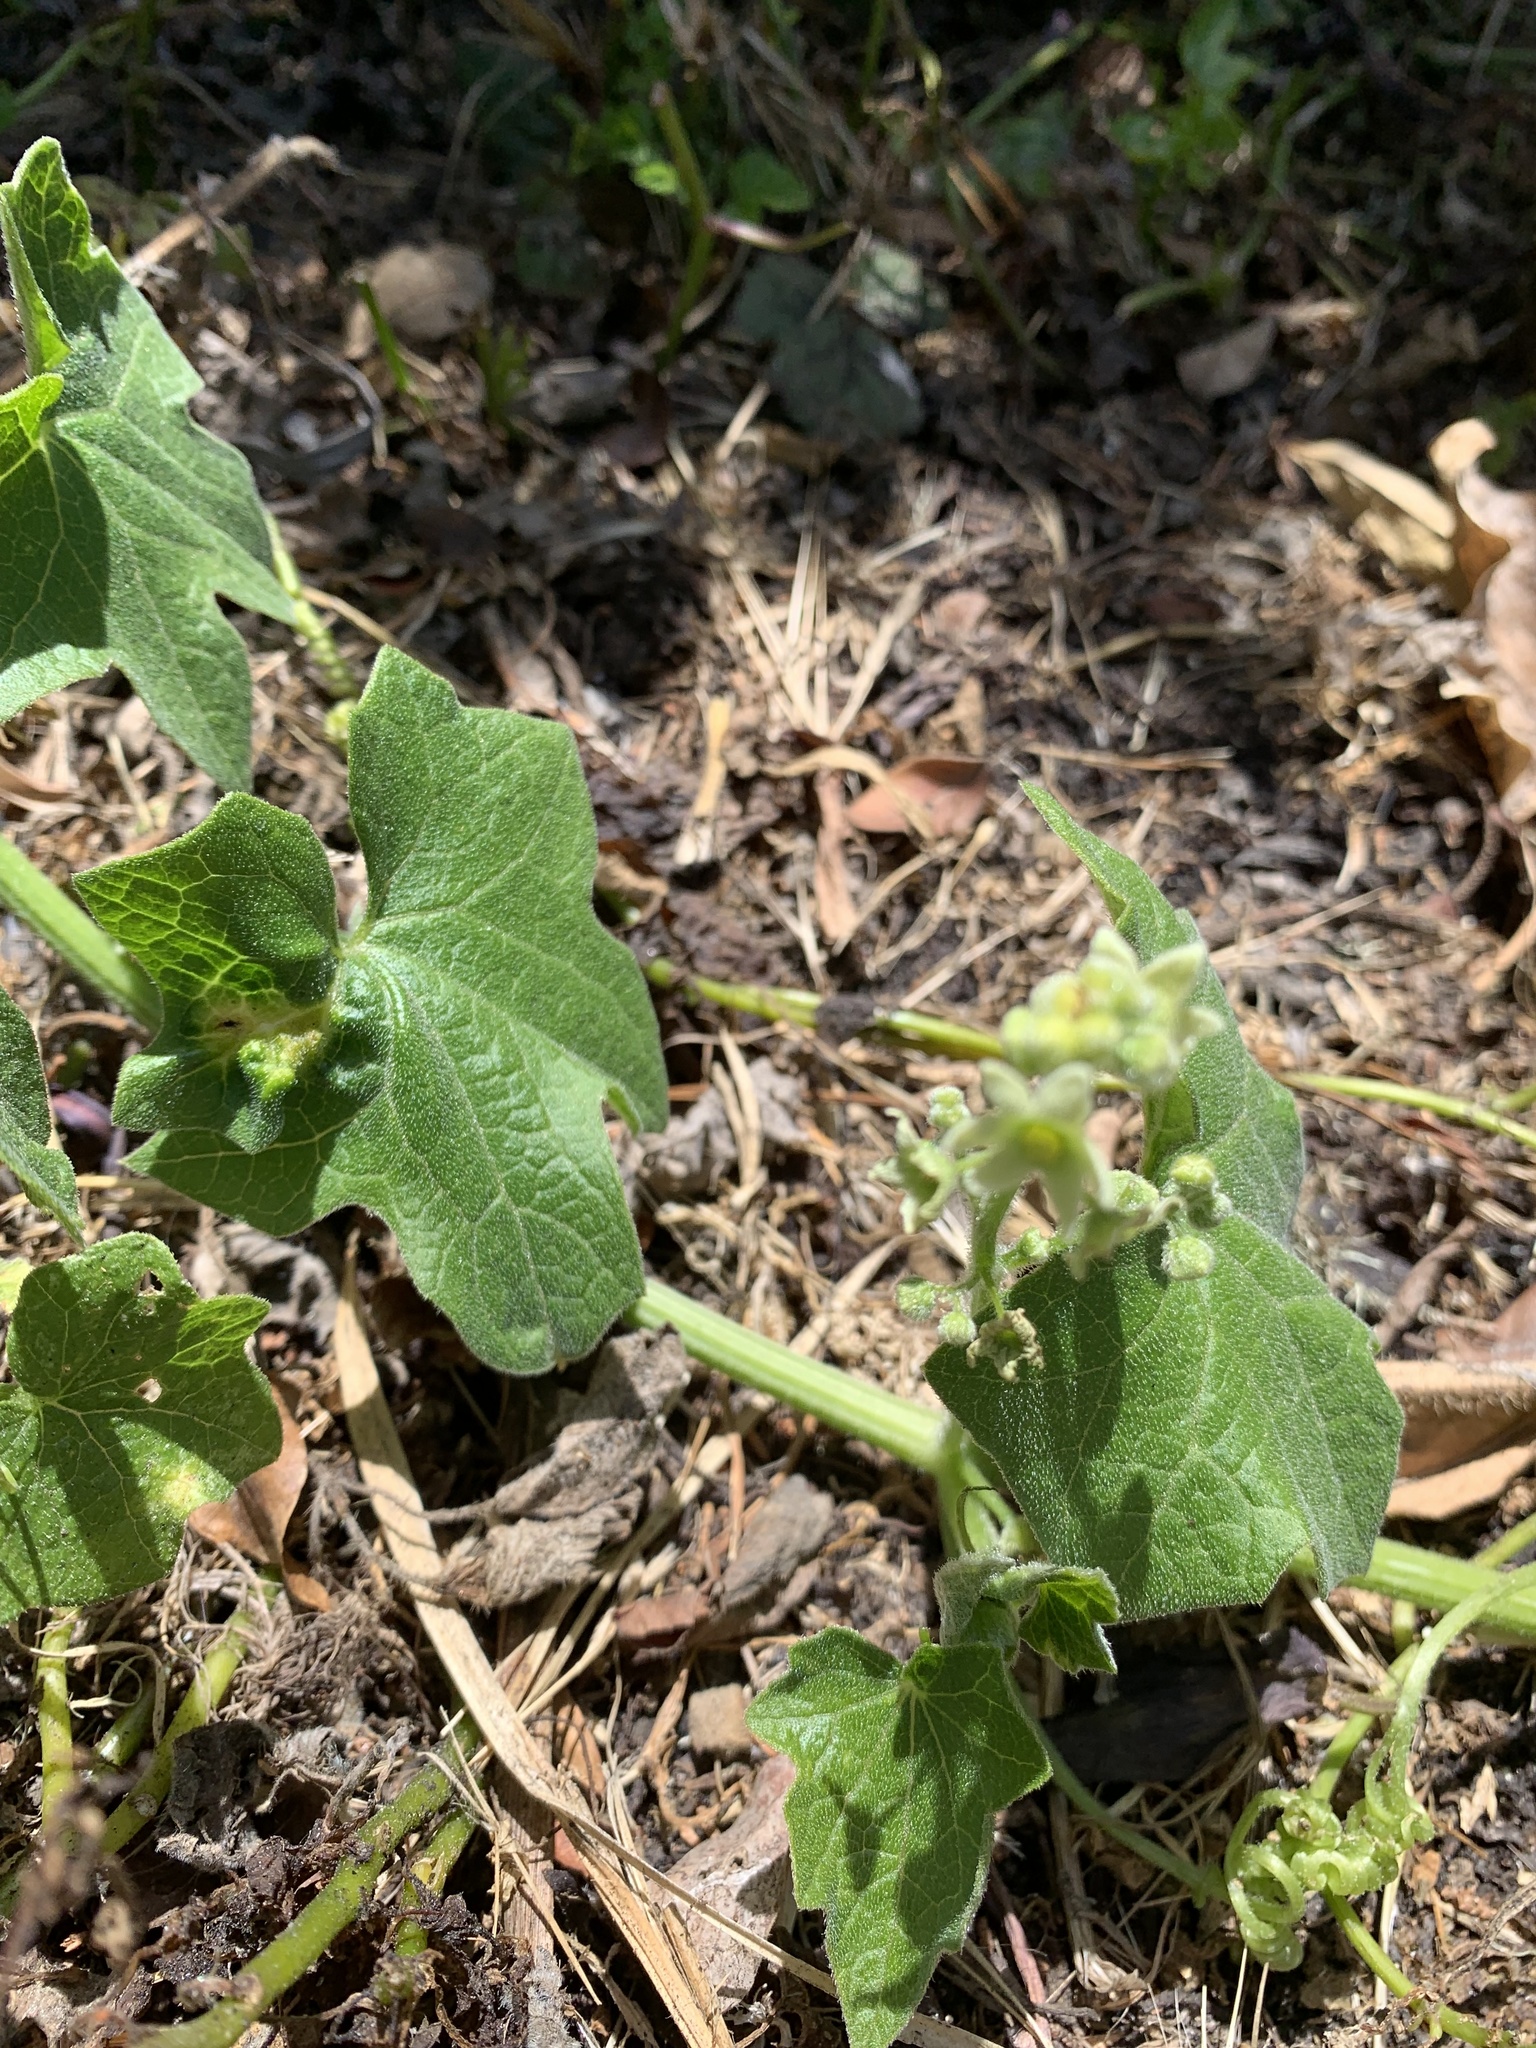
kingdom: Plantae
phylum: Tracheophyta
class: Magnoliopsida
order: Cucurbitales
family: Cucurbitaceae
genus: Marah
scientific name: Marah fabacea
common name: California manroot
